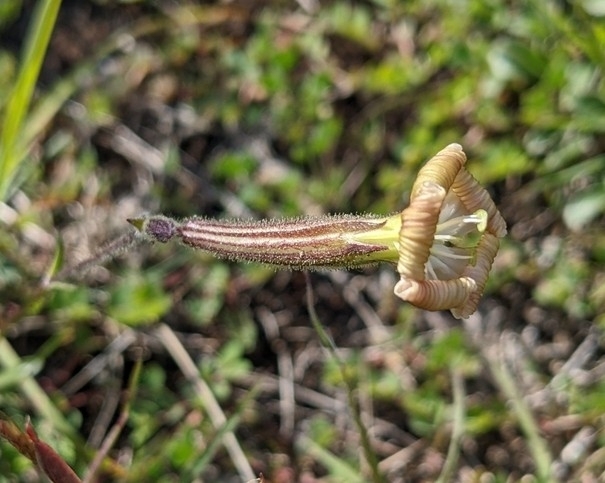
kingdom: Plantae
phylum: Tracheophyta
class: Magnoliopsida
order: Caryophyllales
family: Caryophyllaceae
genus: Silene
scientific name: Silene paradoxa
